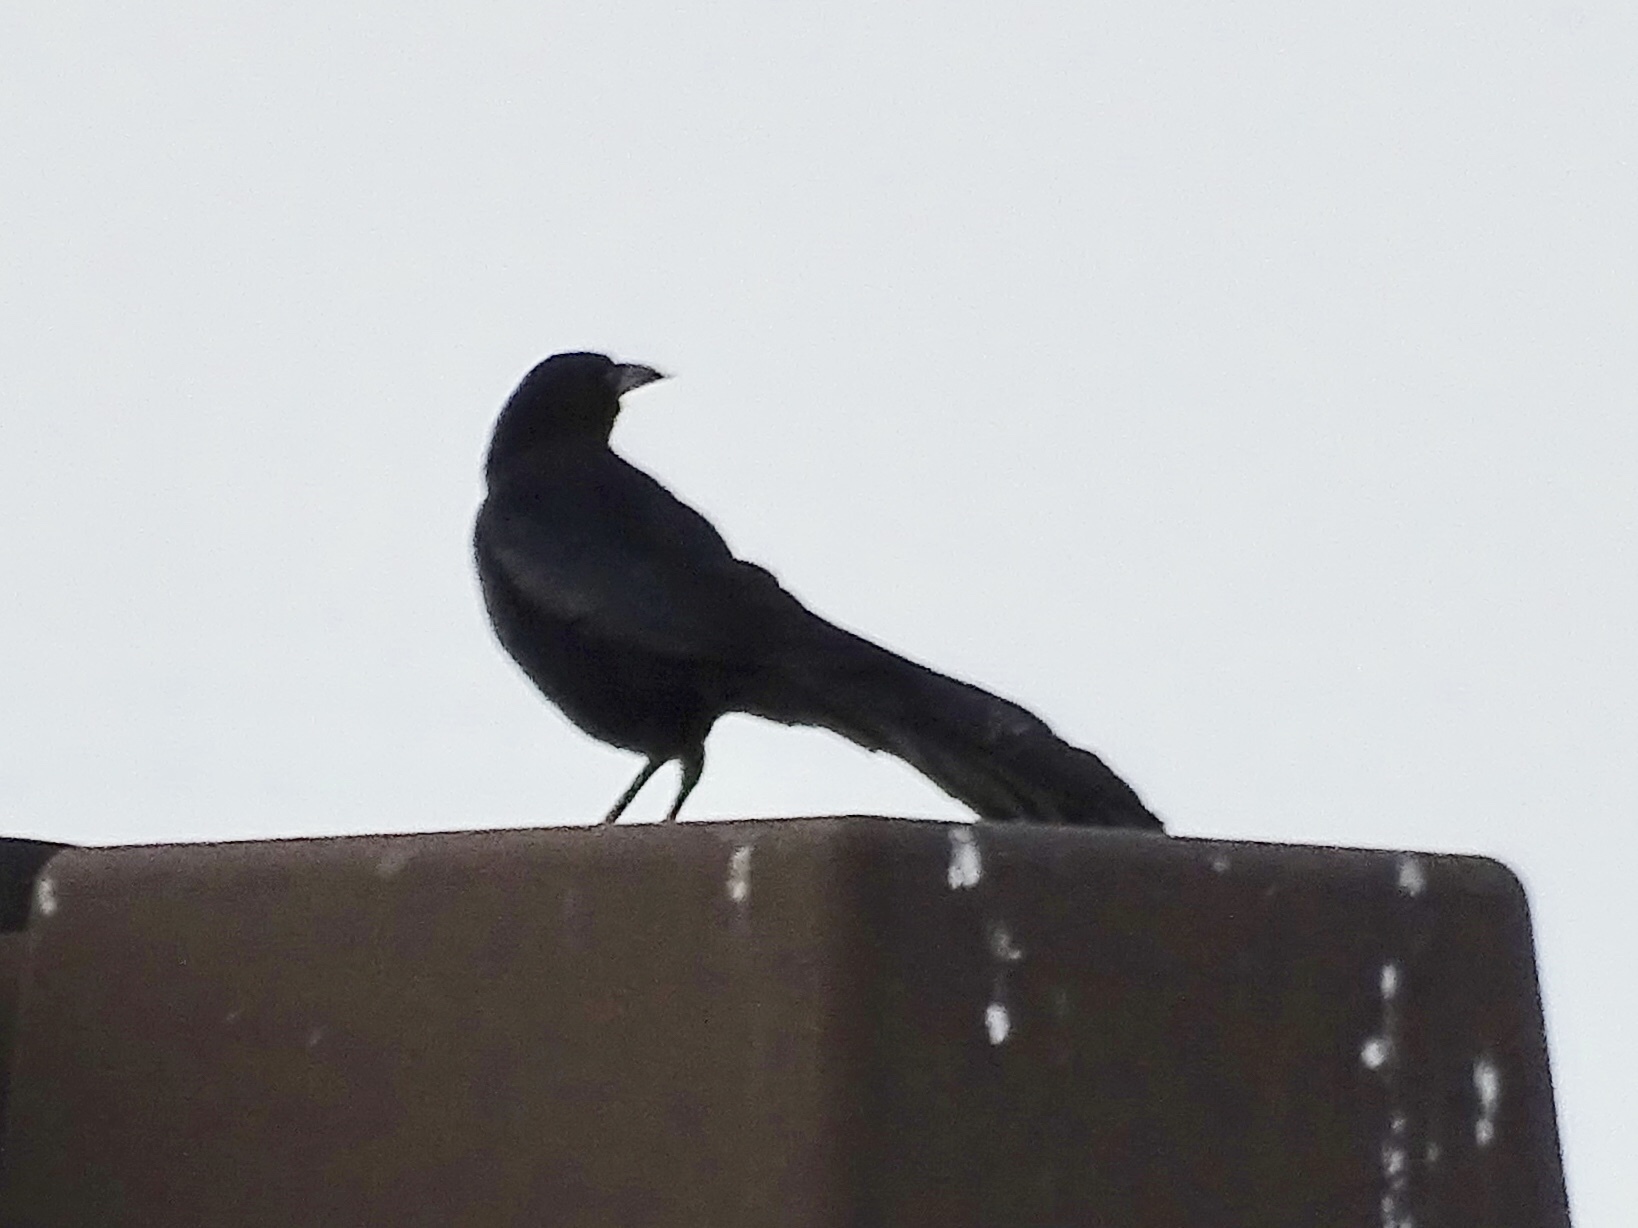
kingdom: Animalia
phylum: Chordata
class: Aves
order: Passeriformes
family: Icteridae
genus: Quiscalus
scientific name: Quiscalus mexicanus
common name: Great-tailed grackle
